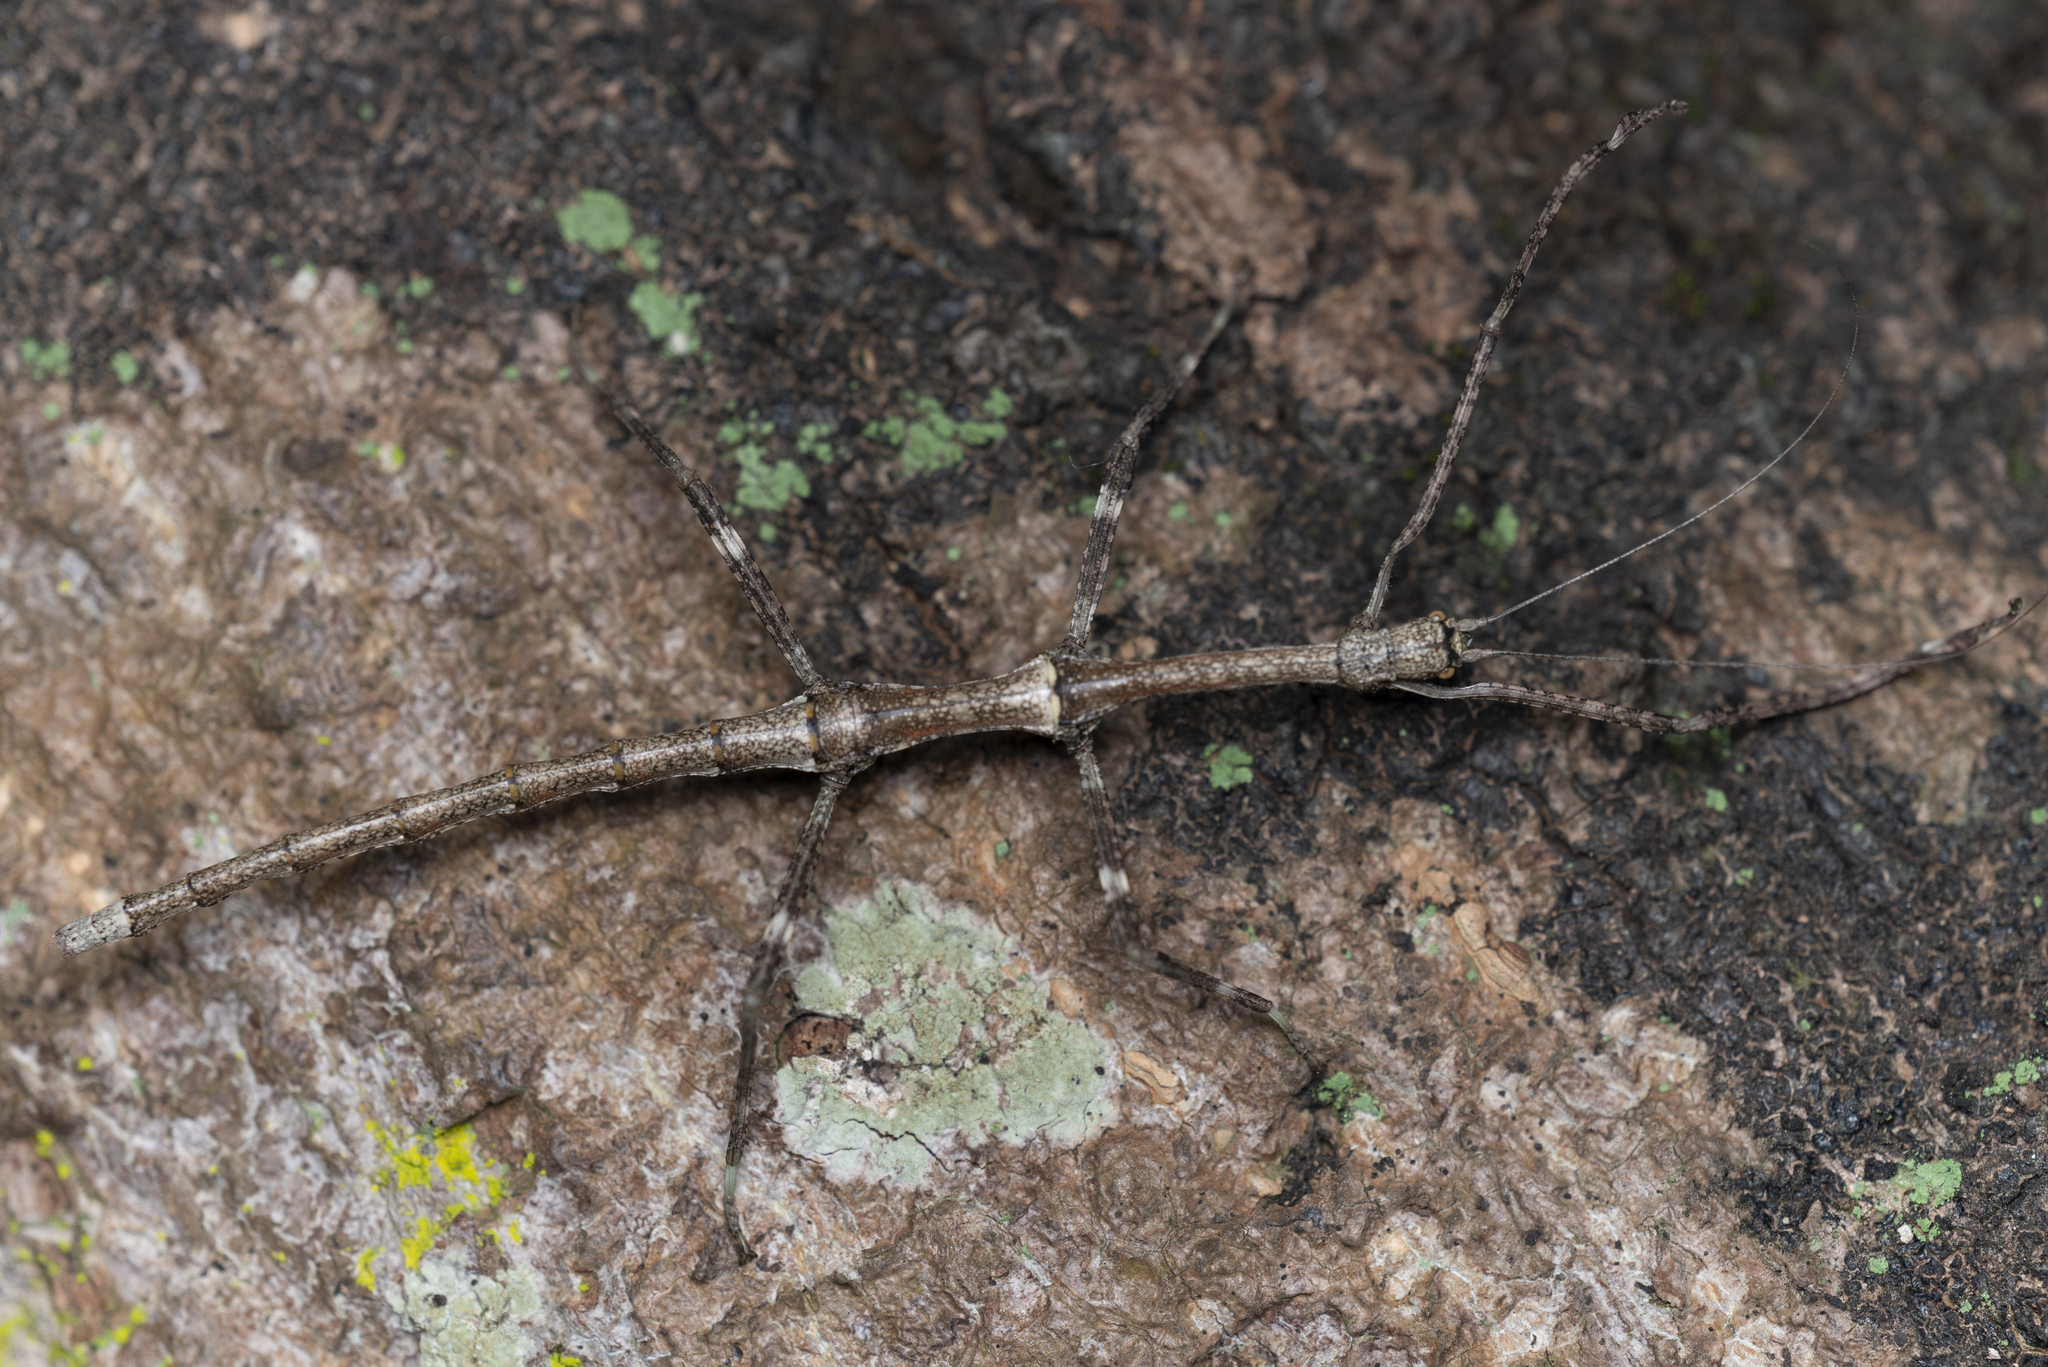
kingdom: Animalia
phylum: Arthropoda
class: Insecta
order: Phasmida
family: Lonchodidae
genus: Phraortes
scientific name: Phraortes stomphax
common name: Hong kong stick insect
